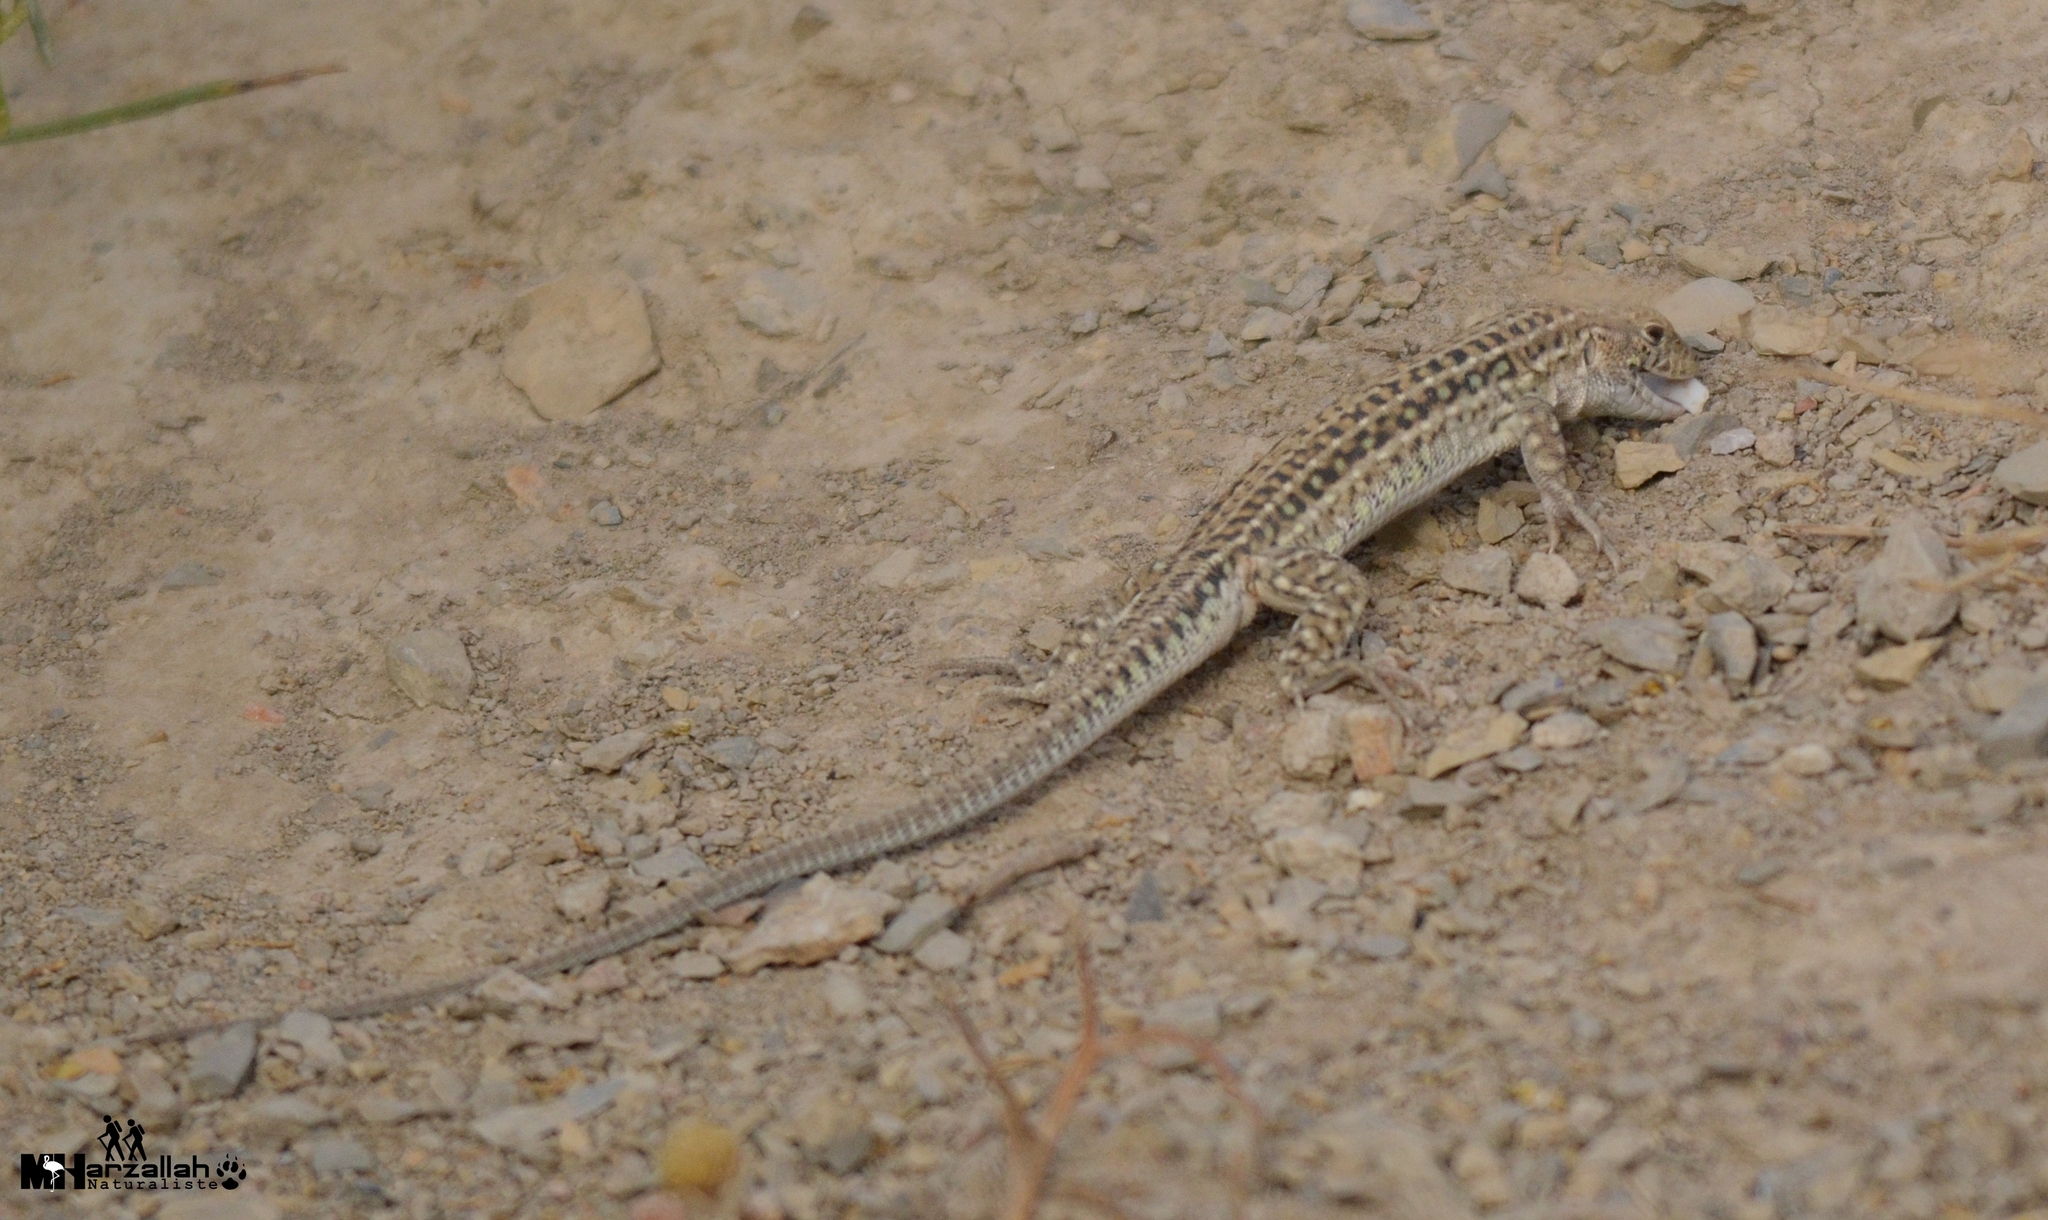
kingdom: Animalia
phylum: Chordata
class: Squamata
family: Lacertidae
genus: Acanthodactylus
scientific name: Acanthodactylus erythrurus
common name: Spiny-footed lizard
